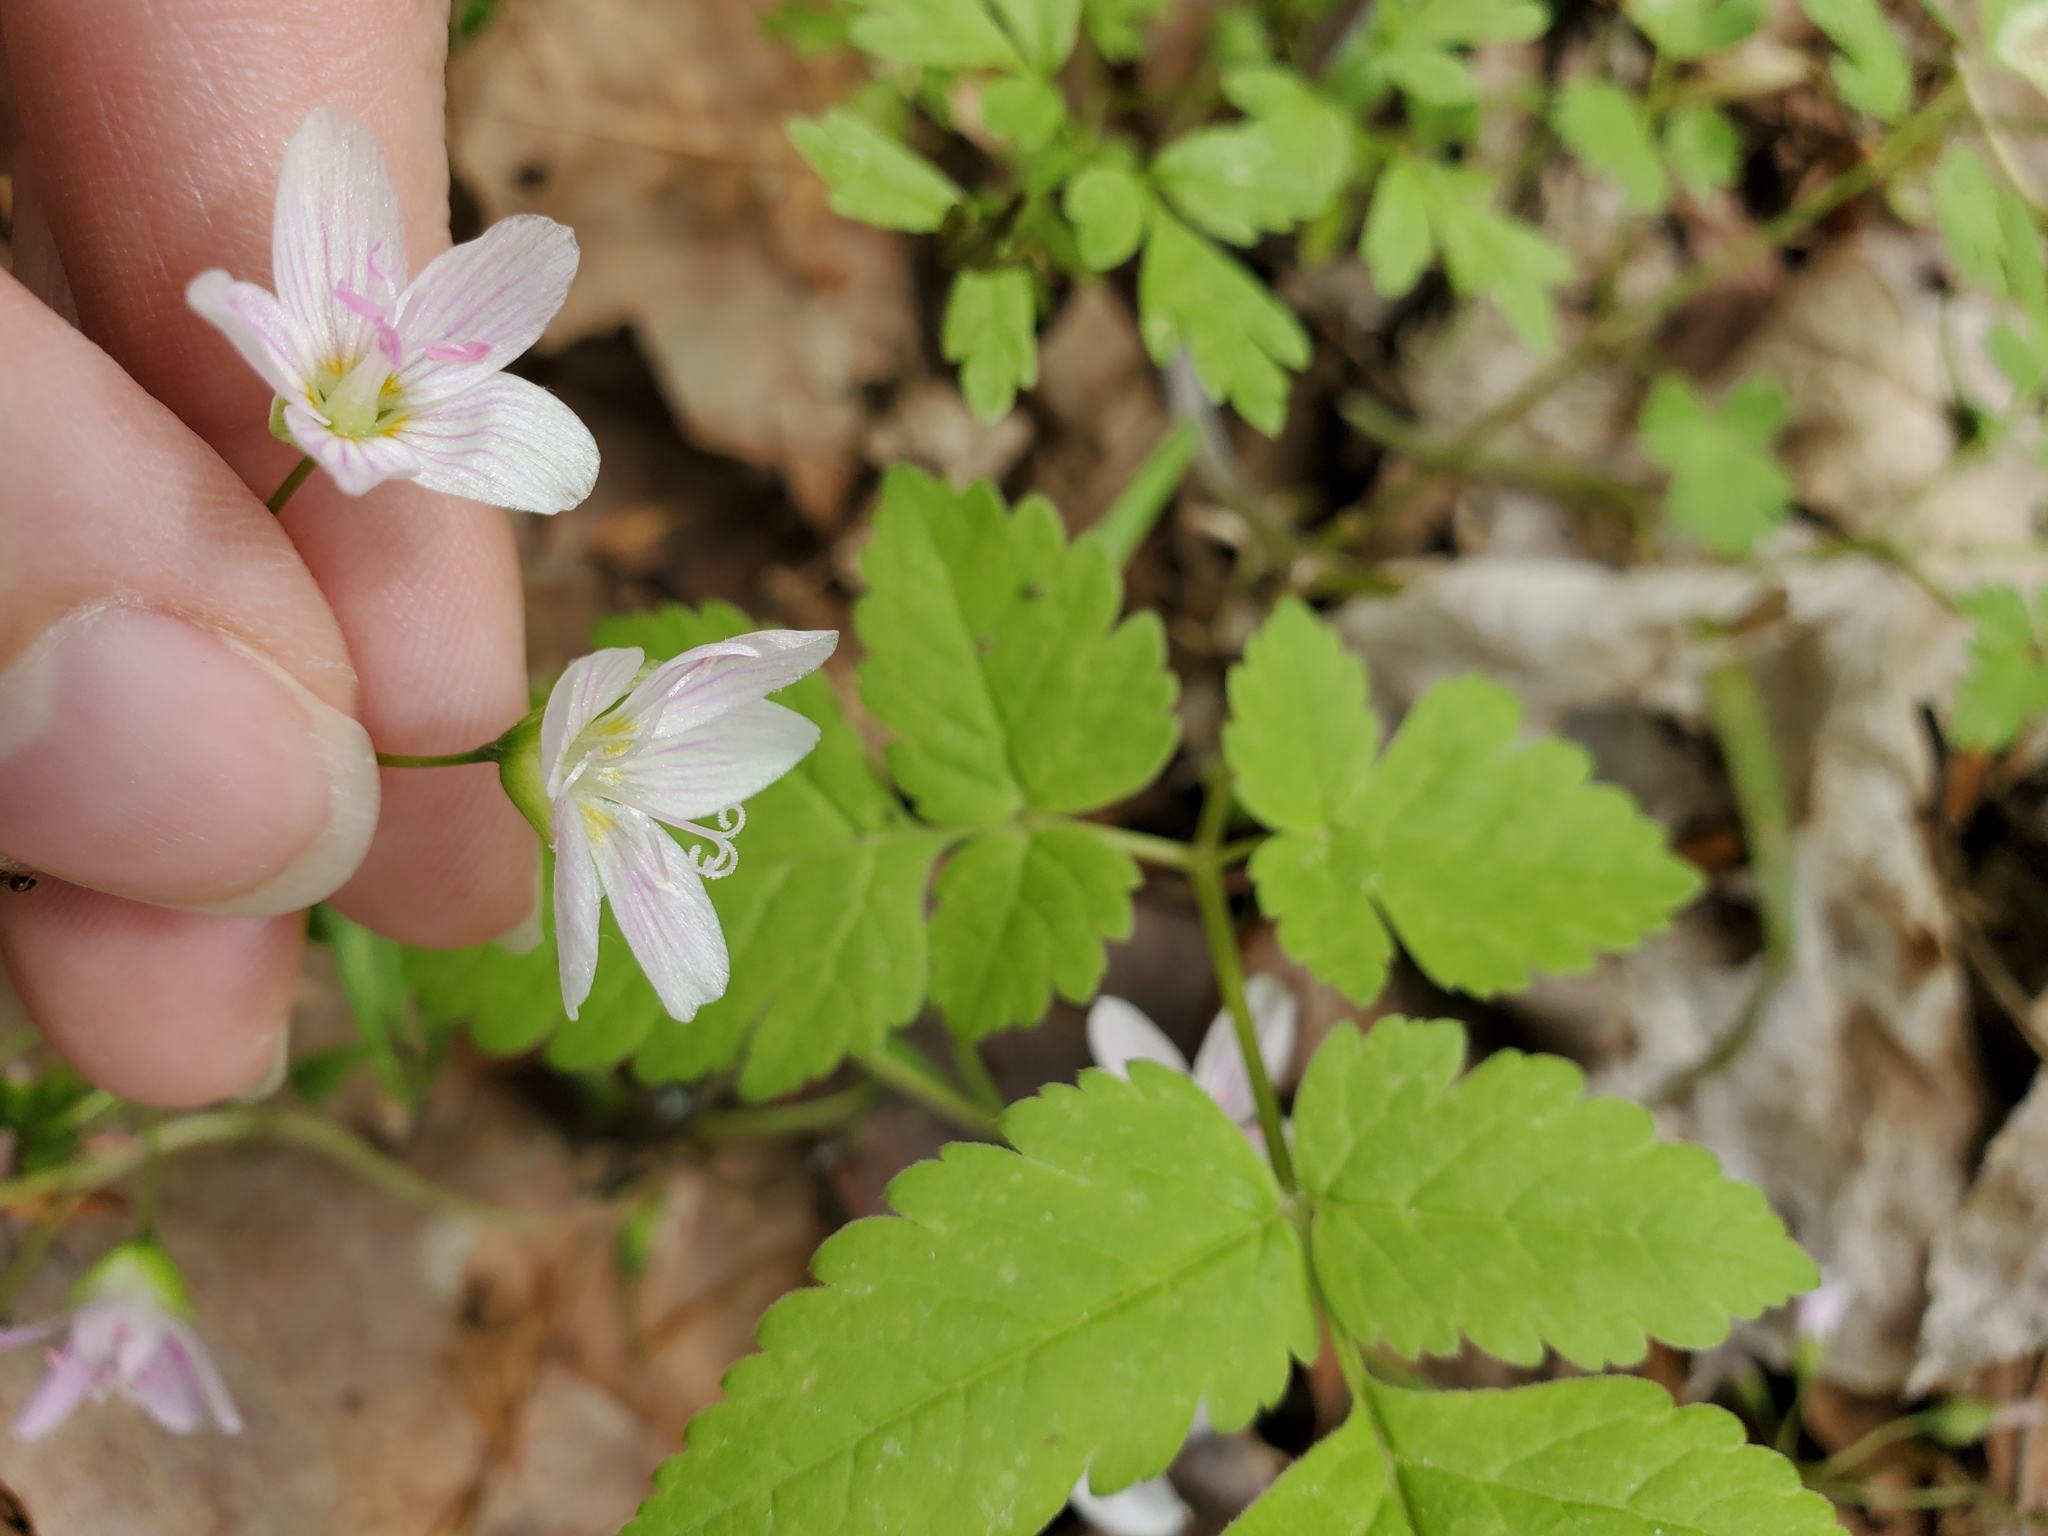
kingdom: Plantae
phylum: Tracheophyta
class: Magnoliopsida
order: Caryophyllales
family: Montiaceae
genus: Claytonia
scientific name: Claytonia virginica
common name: Virginia springbeauty
